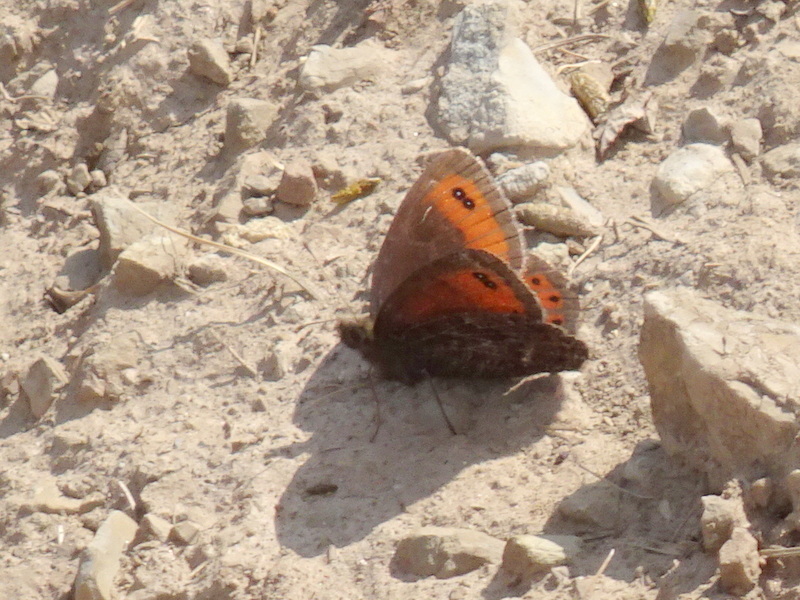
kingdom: Animalia
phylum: Arthropoda
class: Insecta
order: Lepidoptera
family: Nymphalidae
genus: Erebia
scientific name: Erebia montanus
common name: Marbled ringlet
